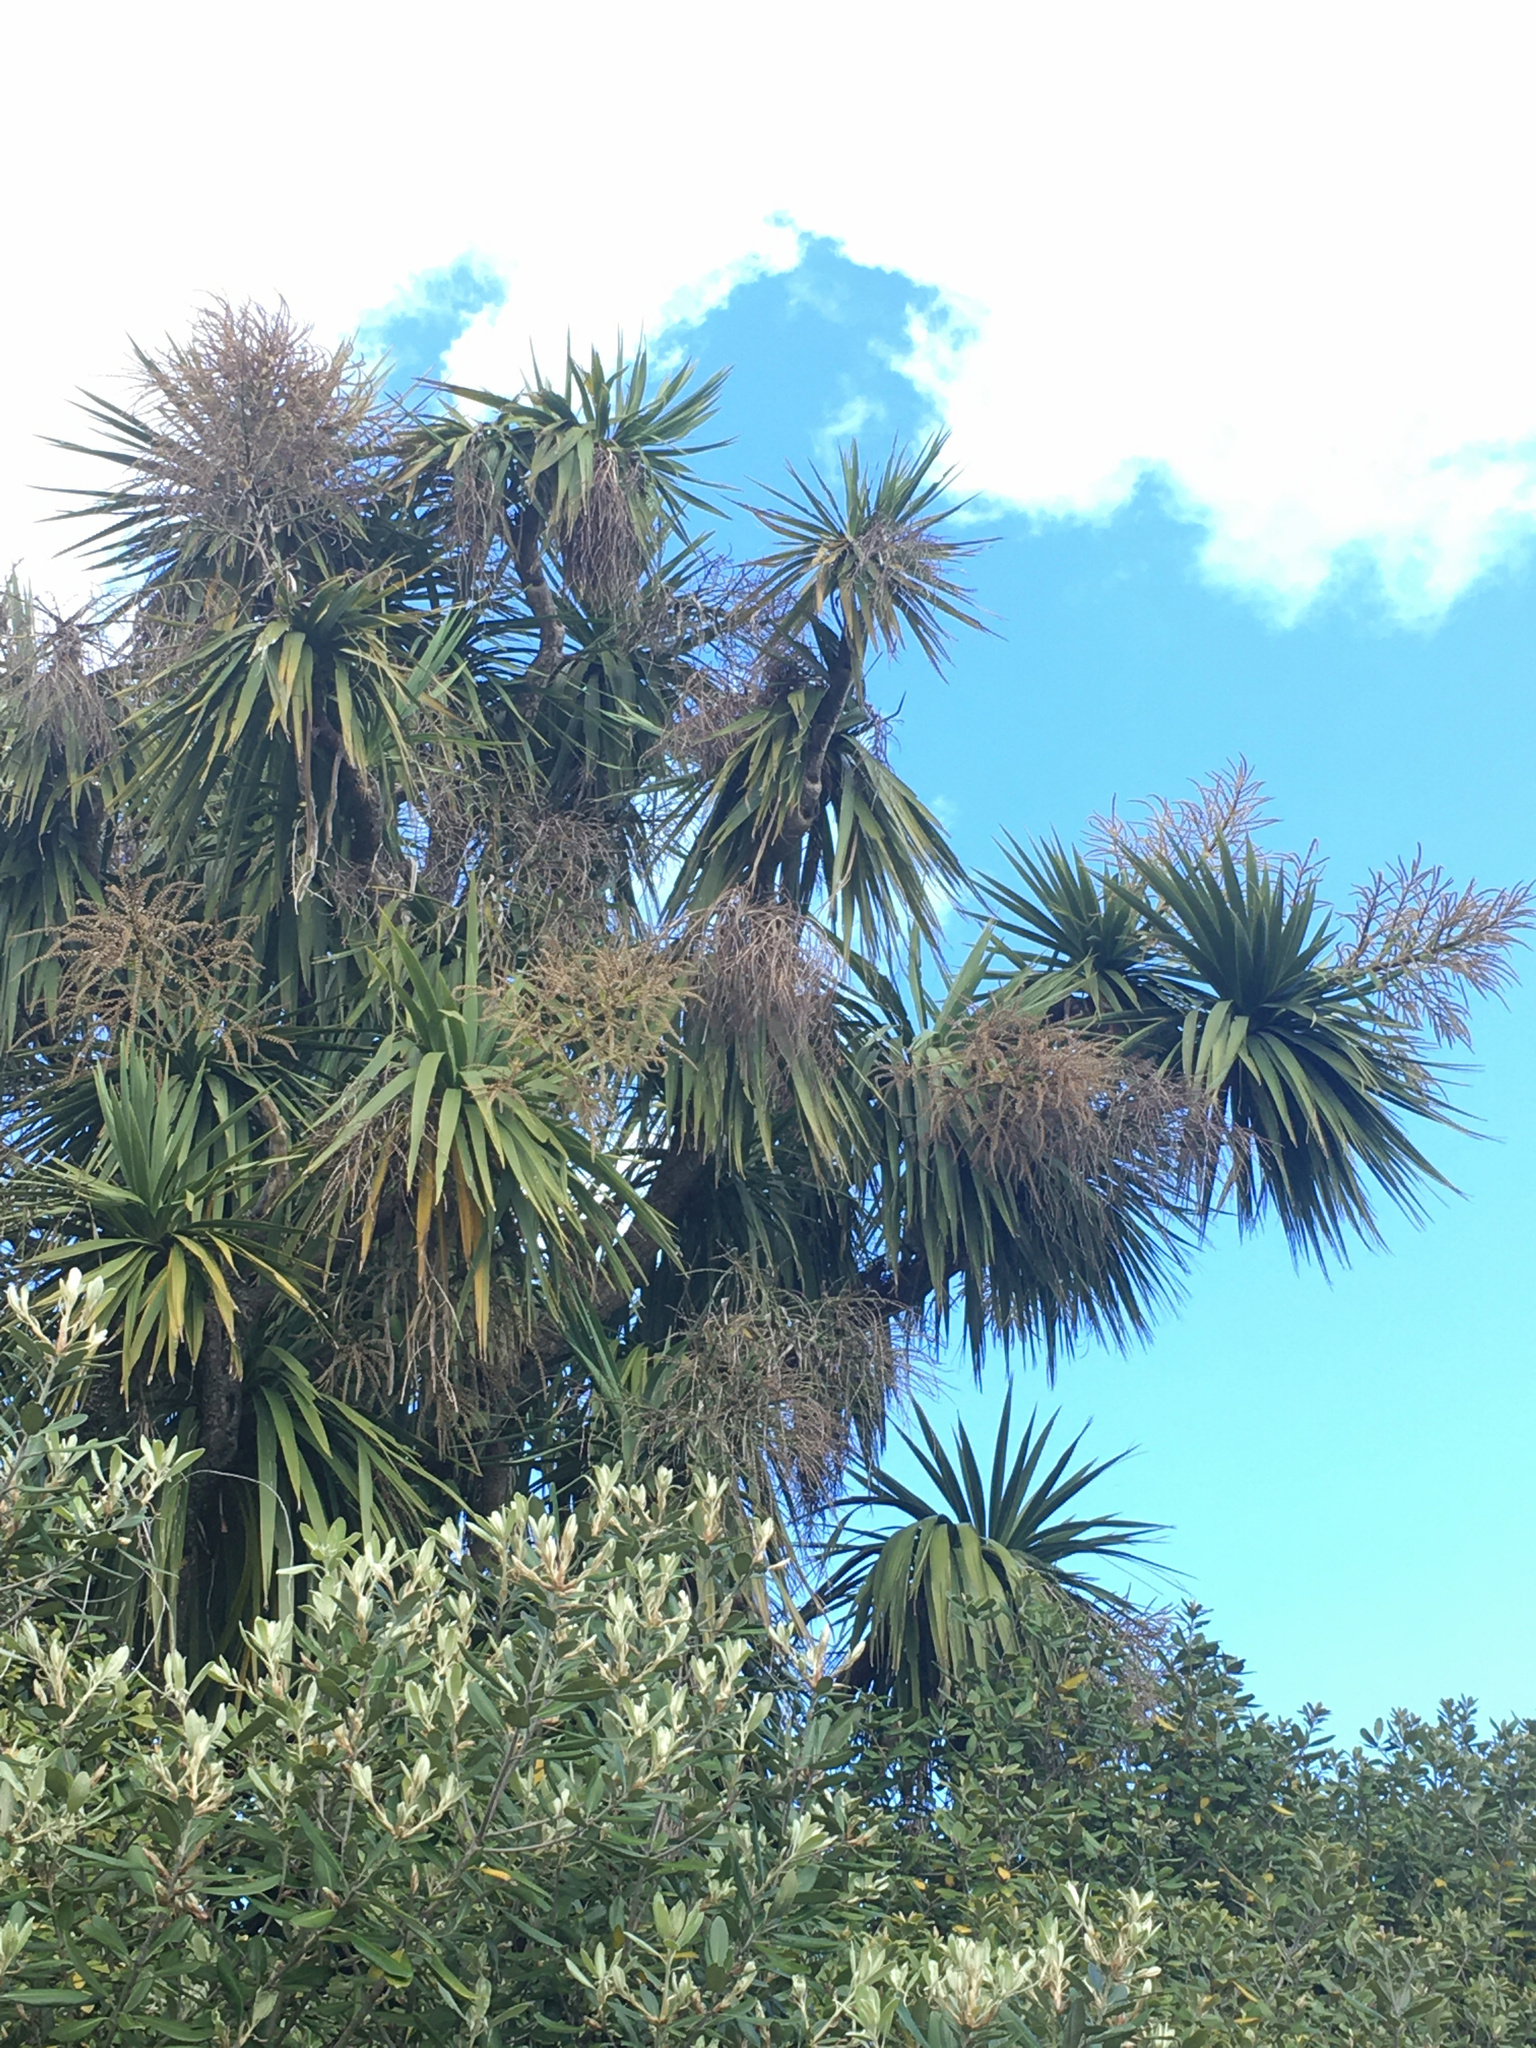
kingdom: Plantae
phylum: Tracheophyta
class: Liliopsida
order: Asparagales
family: Asparagaceae
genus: Cordyline
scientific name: Cordyline australis
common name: Cabbage-palm
